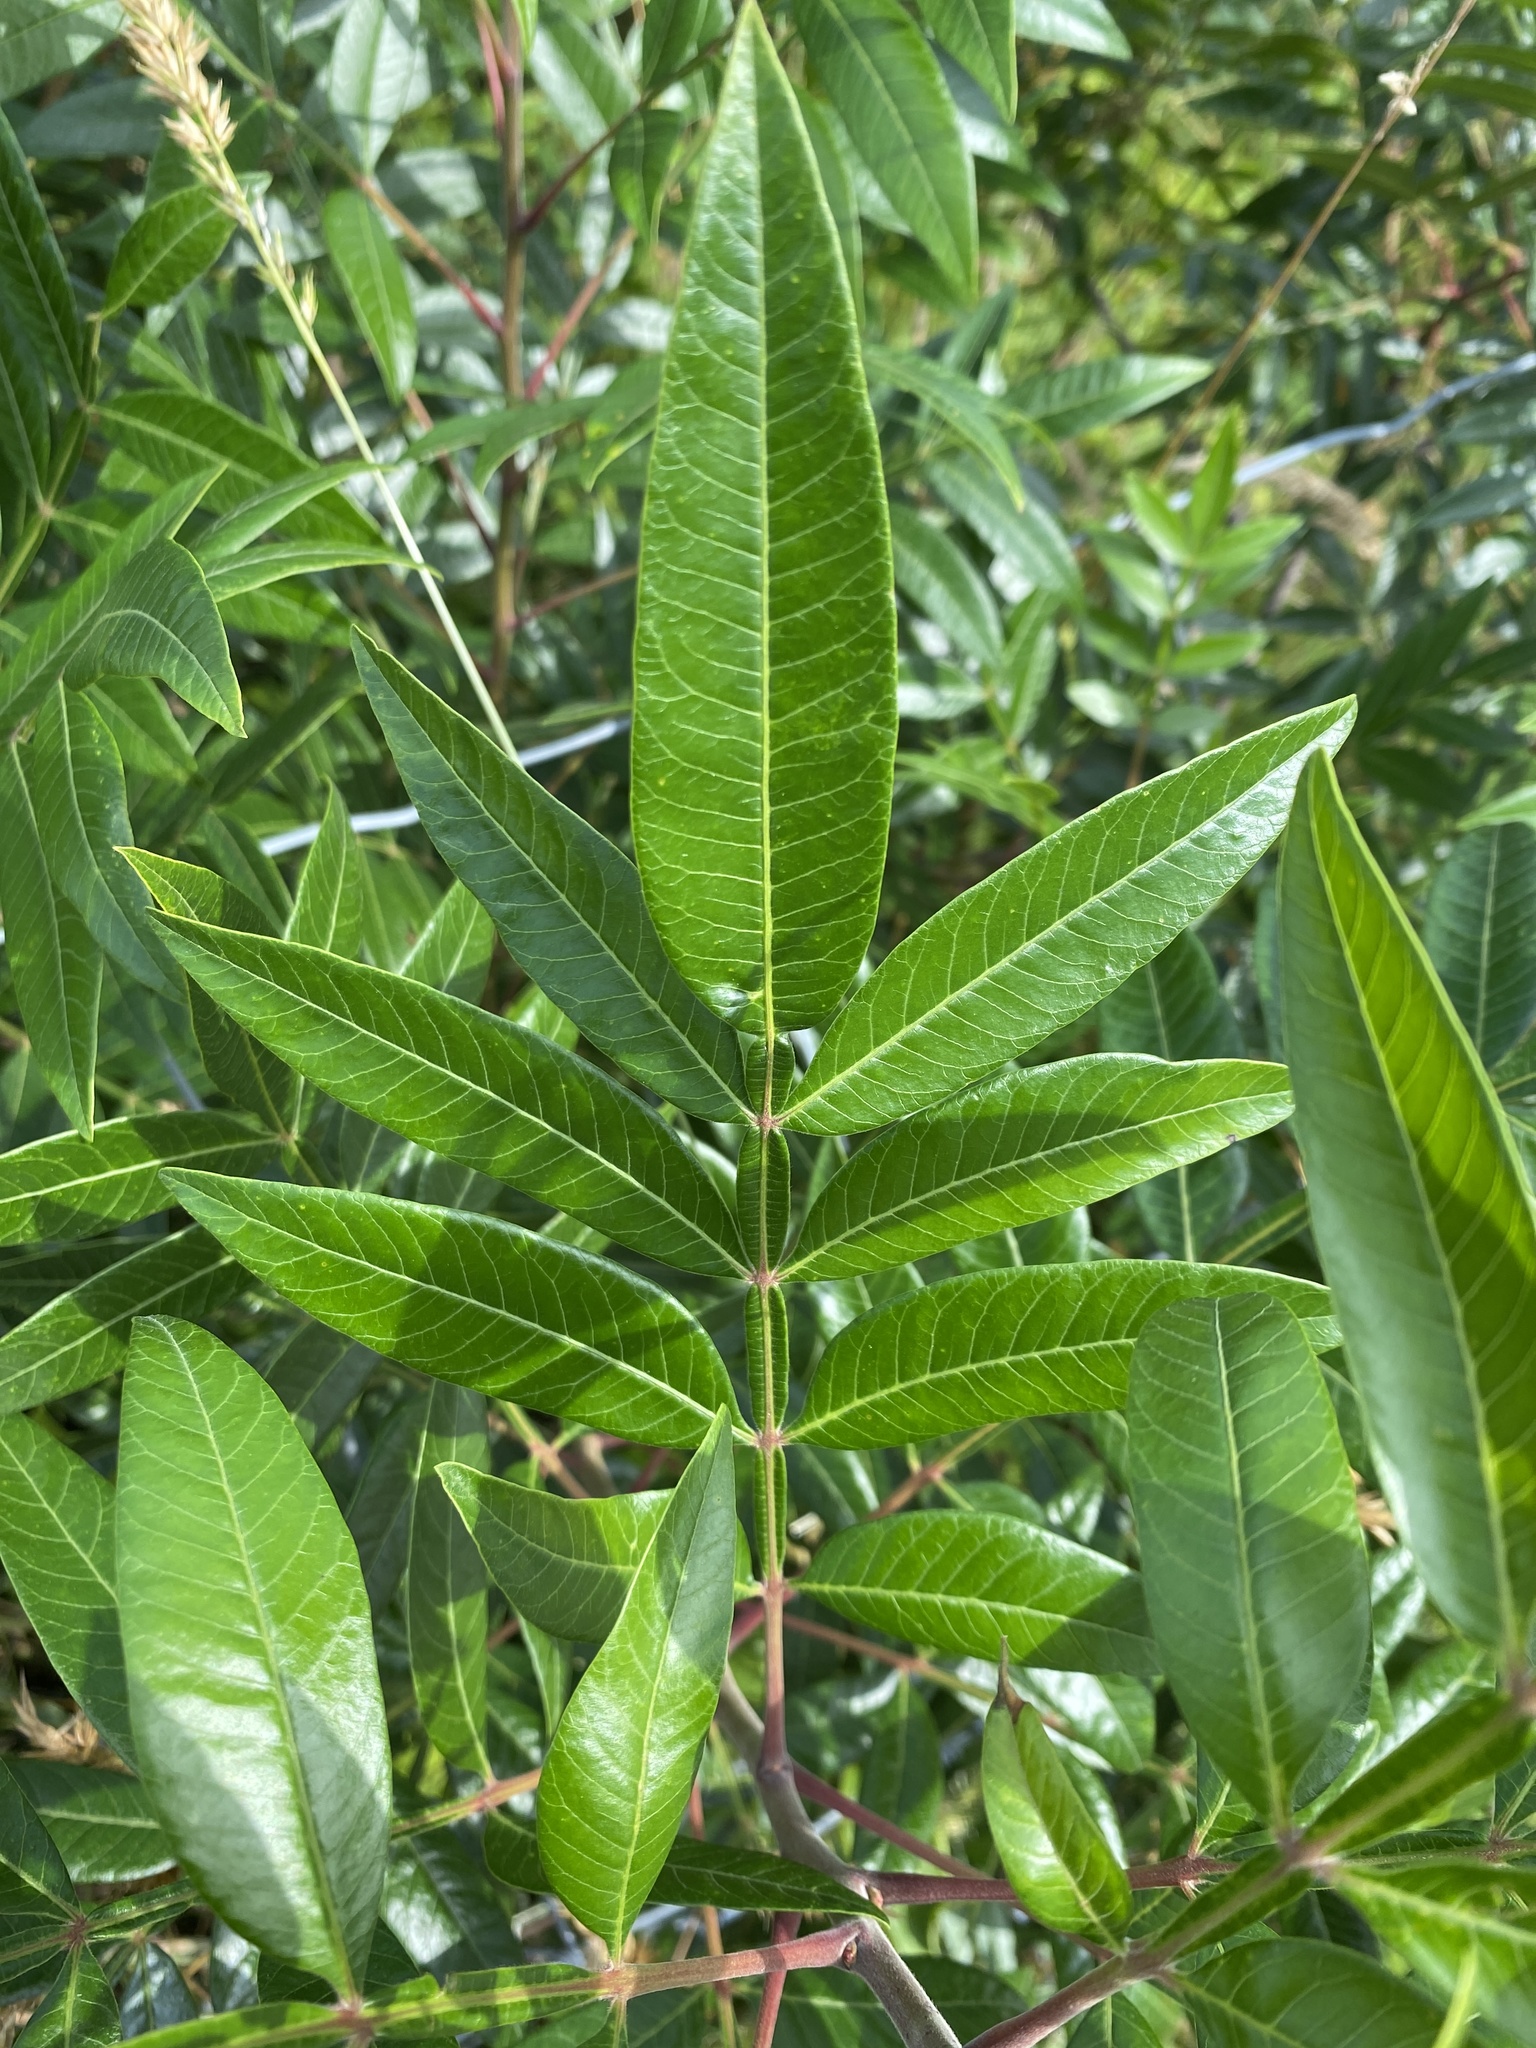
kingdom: Plantae
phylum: Tracheophyta
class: Magnoliopsida
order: Sapindales
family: Anacardiaceae
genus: Rhus
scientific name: Rhus copallina
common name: Shining sumac
